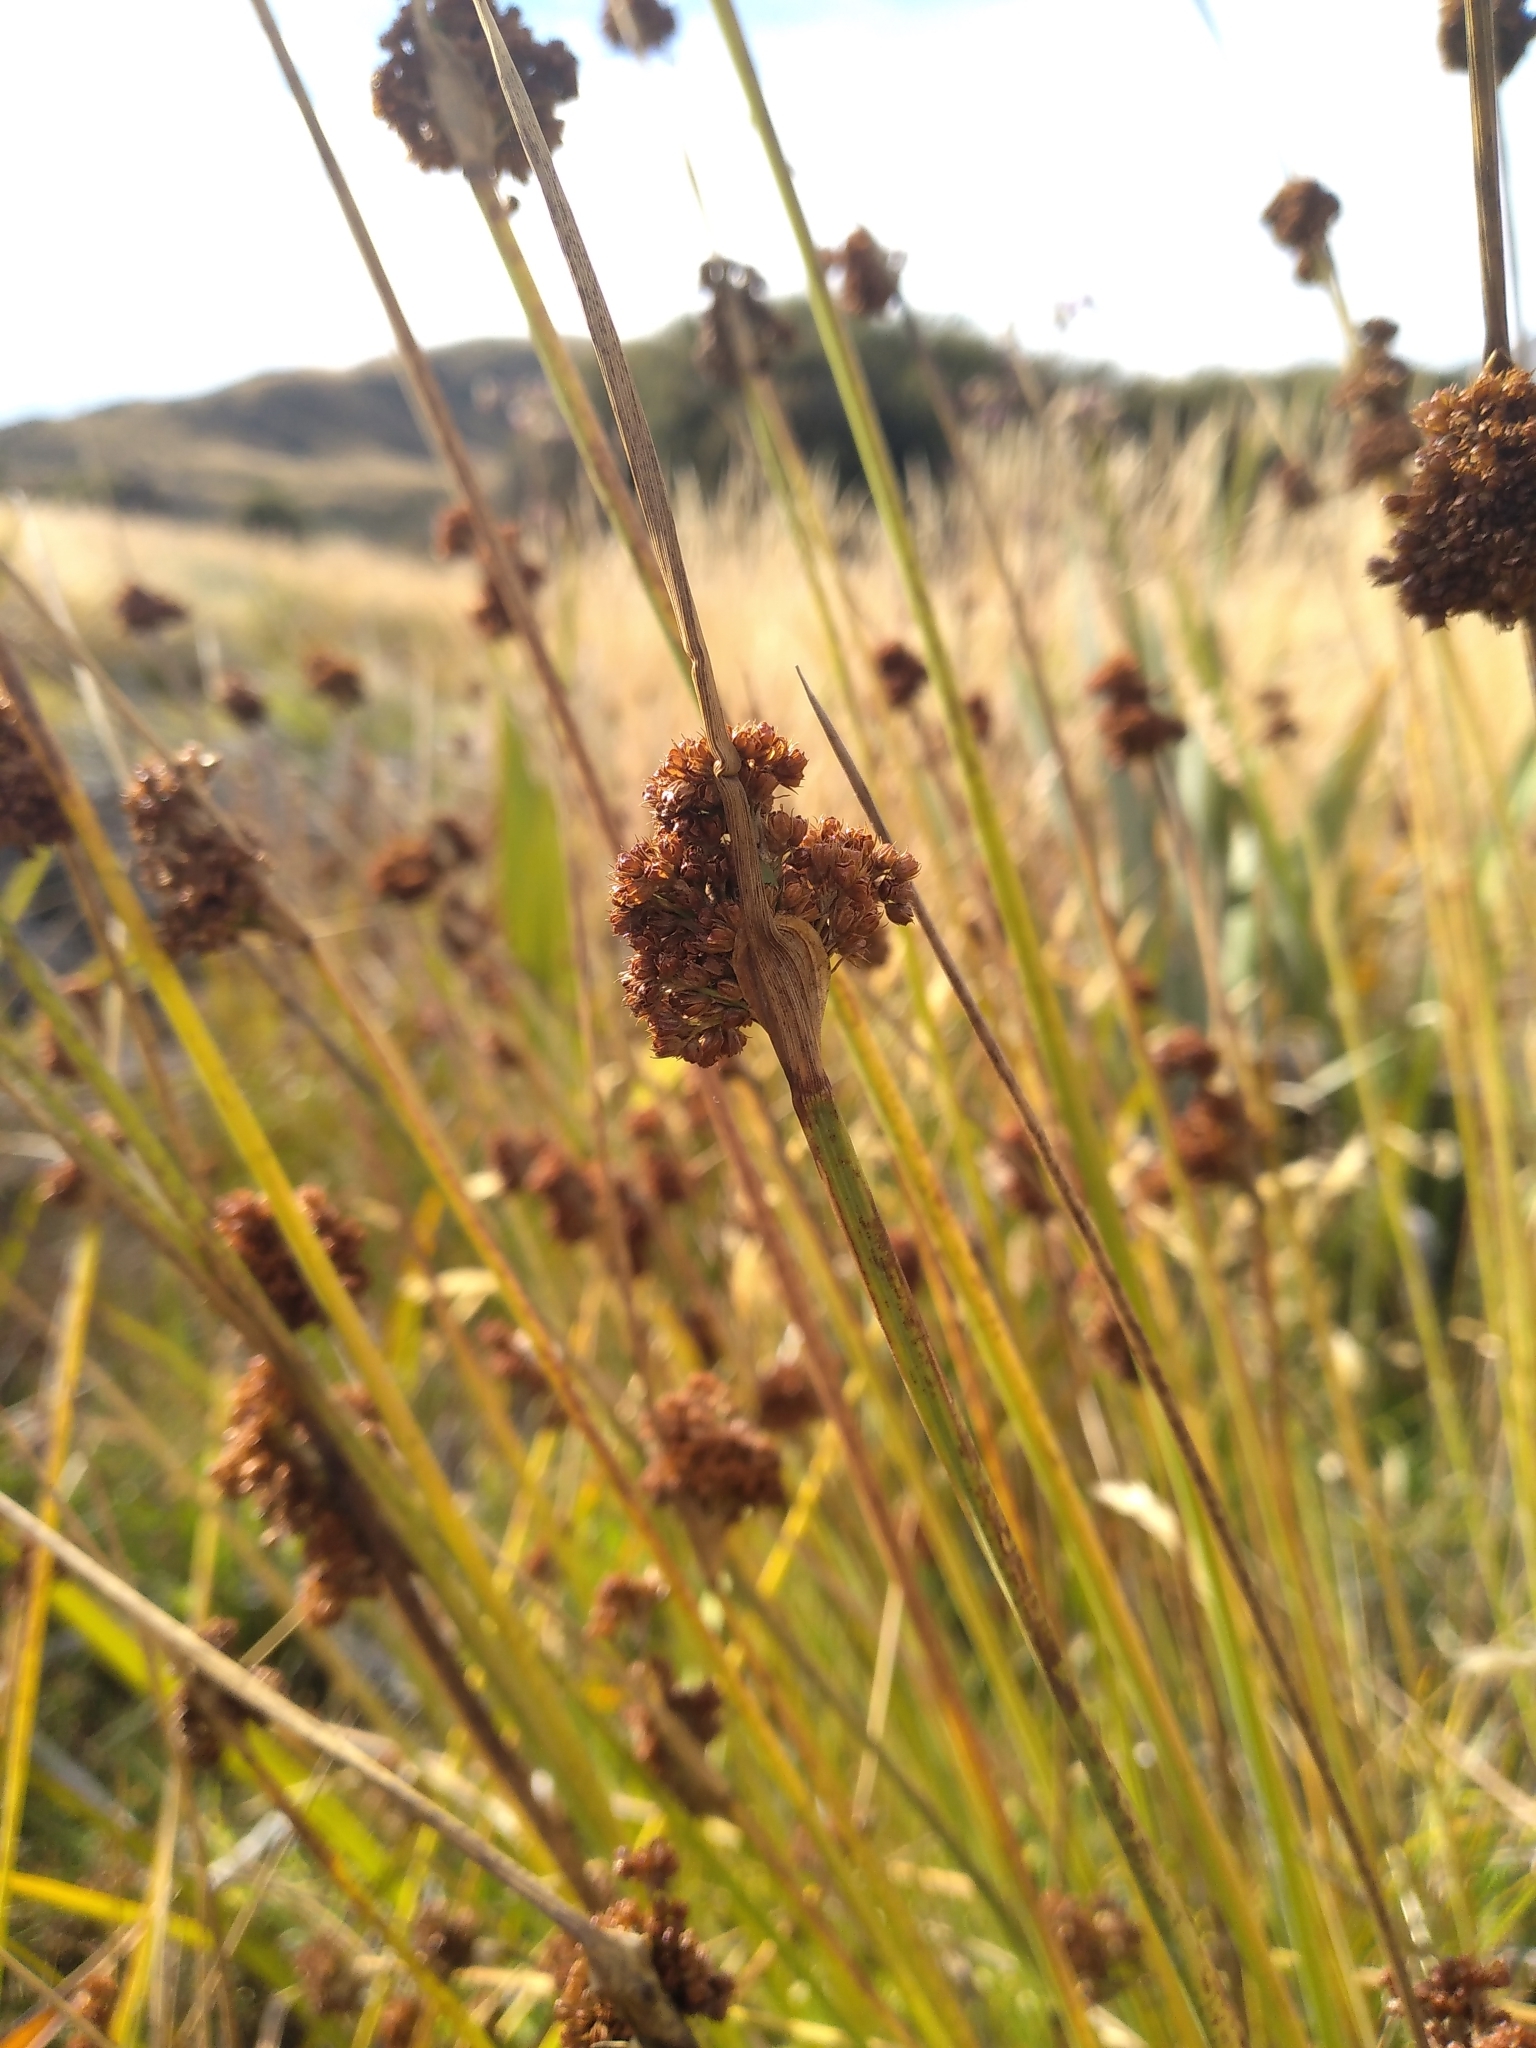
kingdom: Plantae
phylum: Tracheophyta
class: Liliopsida
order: Poales
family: Juncaceae
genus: Juncus
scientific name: Juncus conglomeratus
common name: Compact rush
